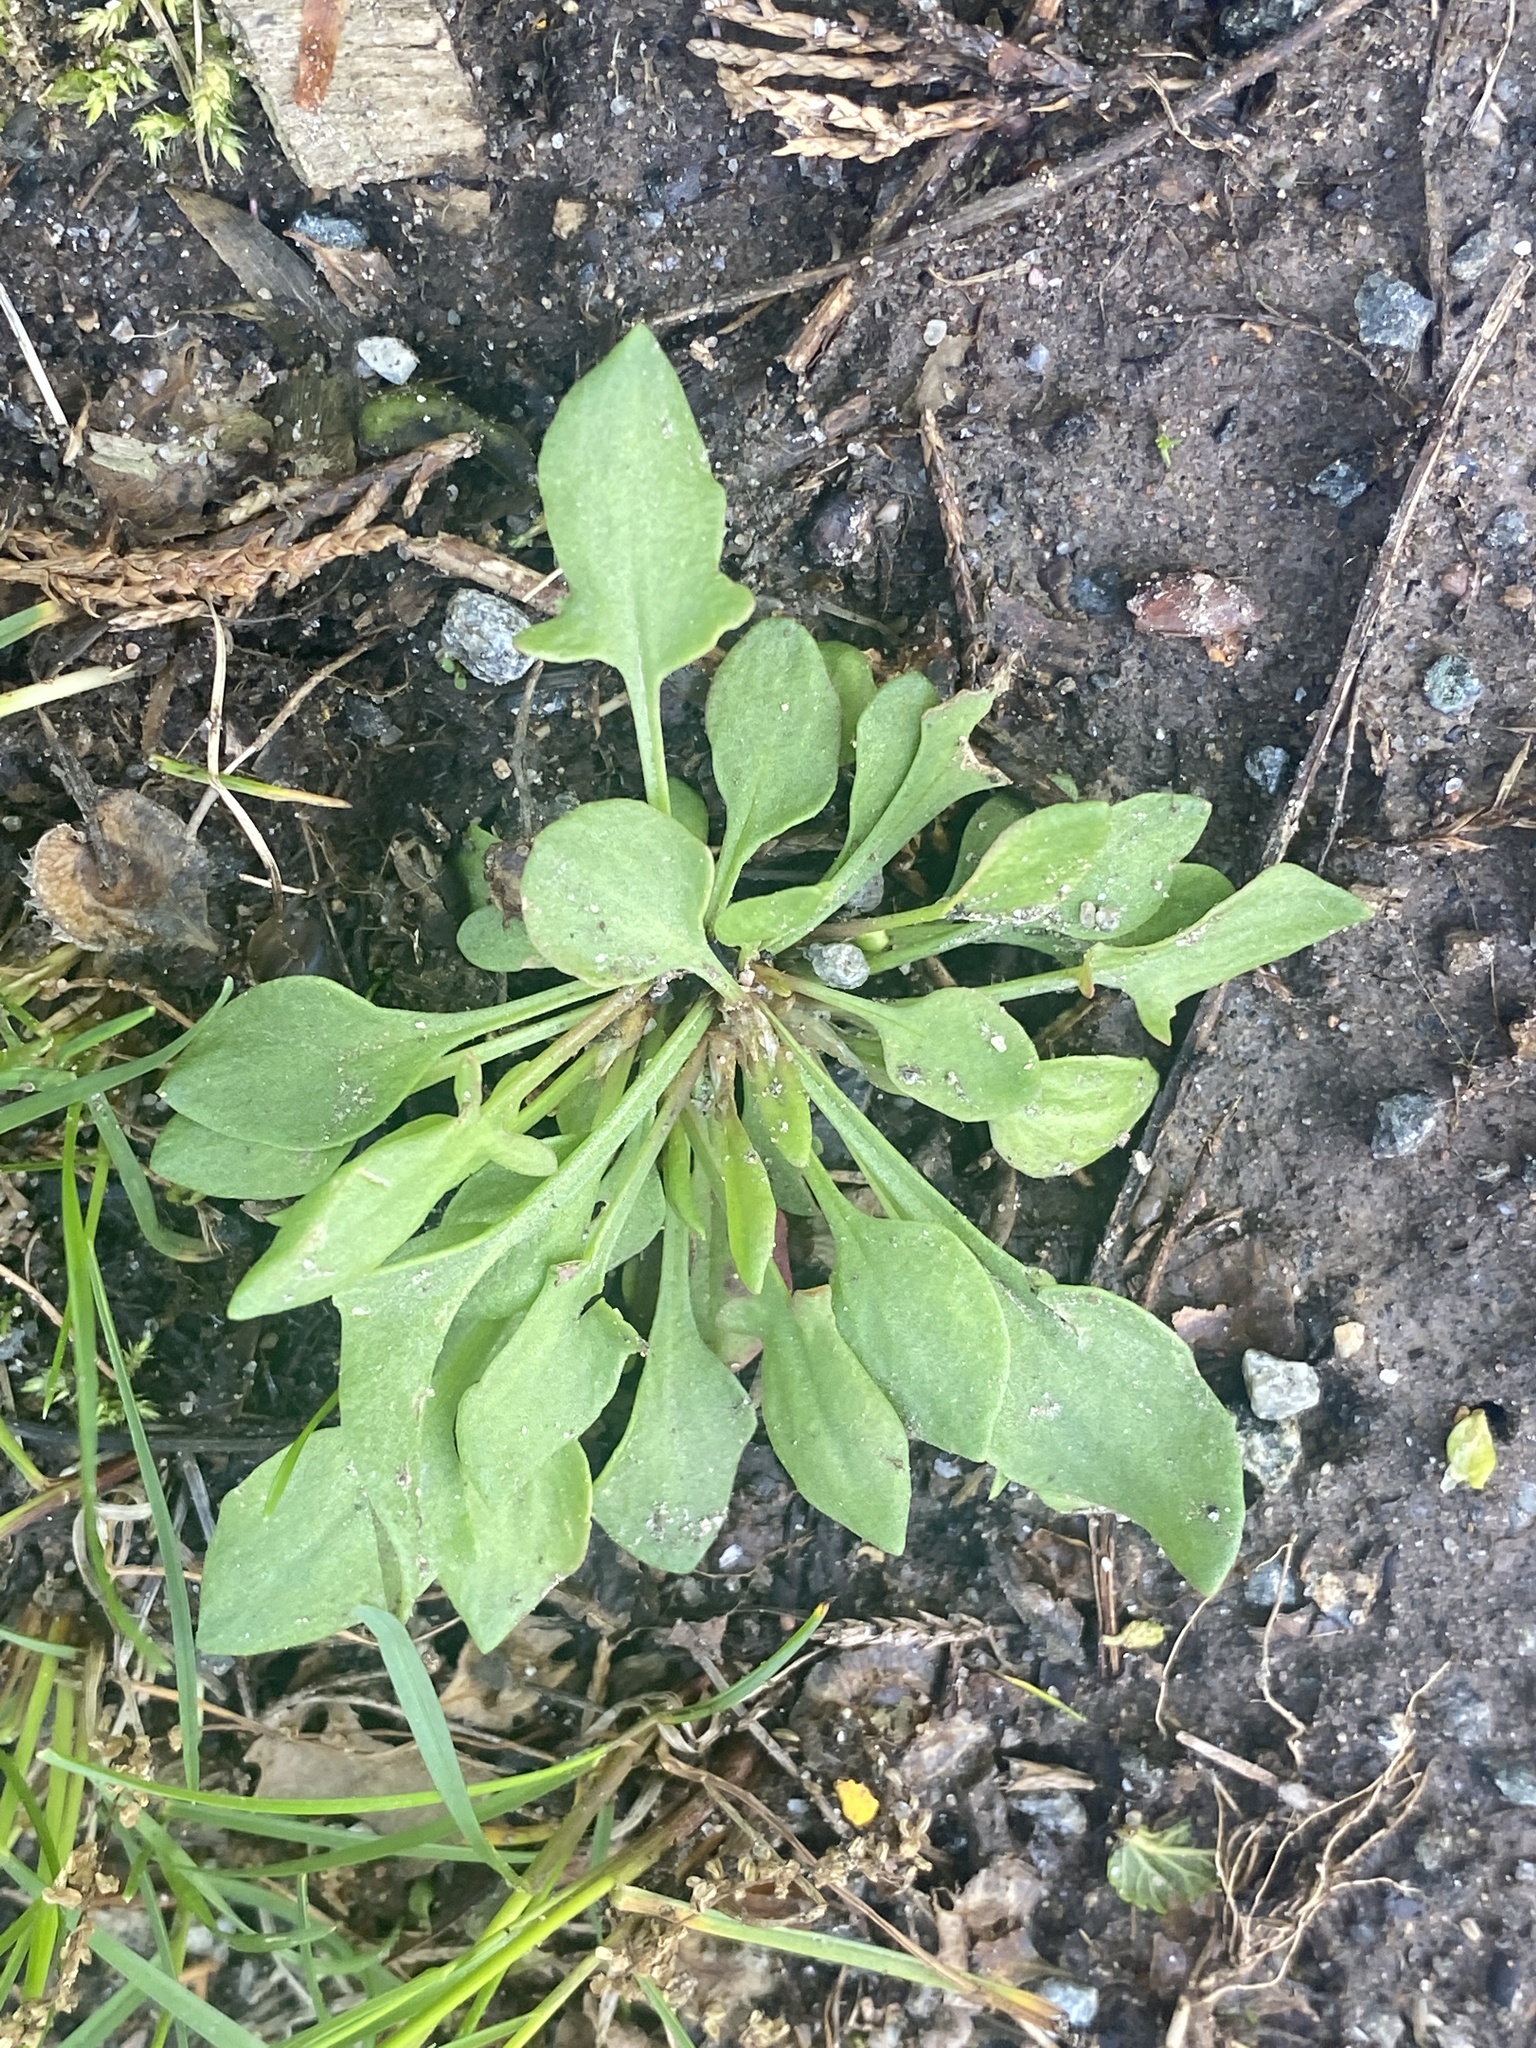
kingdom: Plantae
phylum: Tracheophyta
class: Magnoliopsida
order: Caryophyllales
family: Polygonaceae
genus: Rumex
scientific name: Rumex acetosella
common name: Common sheep sorrel
